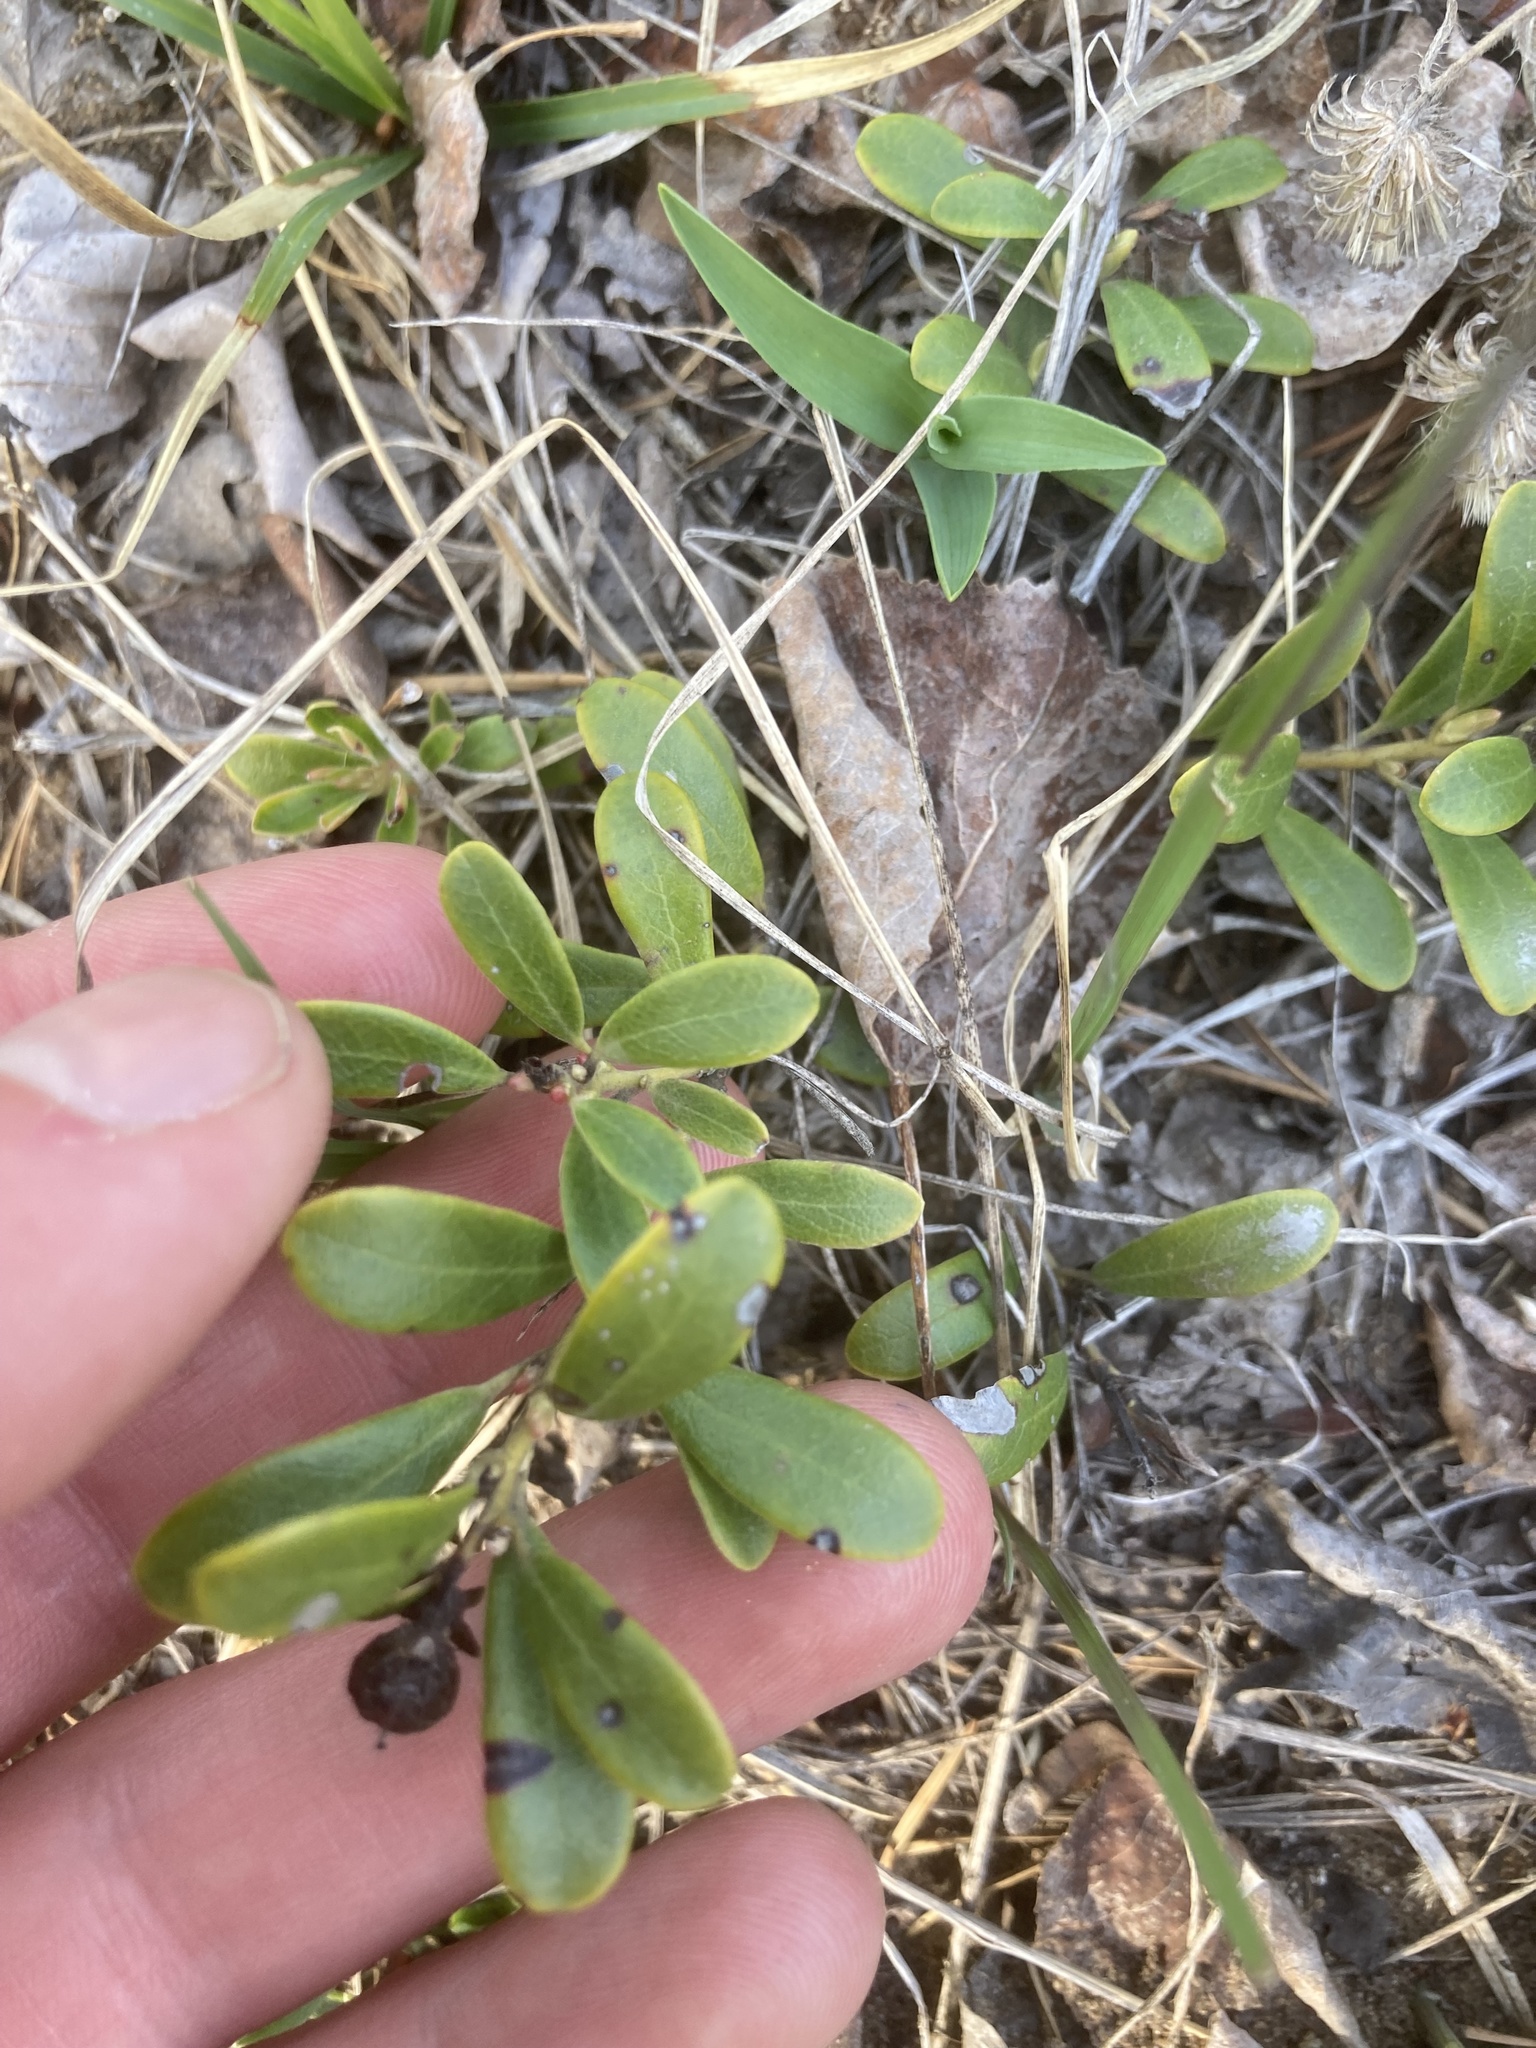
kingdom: Plantae
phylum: Tracheophyta
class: Magnoliopsida
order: Ericales
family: Ericaceae
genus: Arctostaphylos
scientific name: Arctostaphylos uva-ursi
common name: Bearberry
